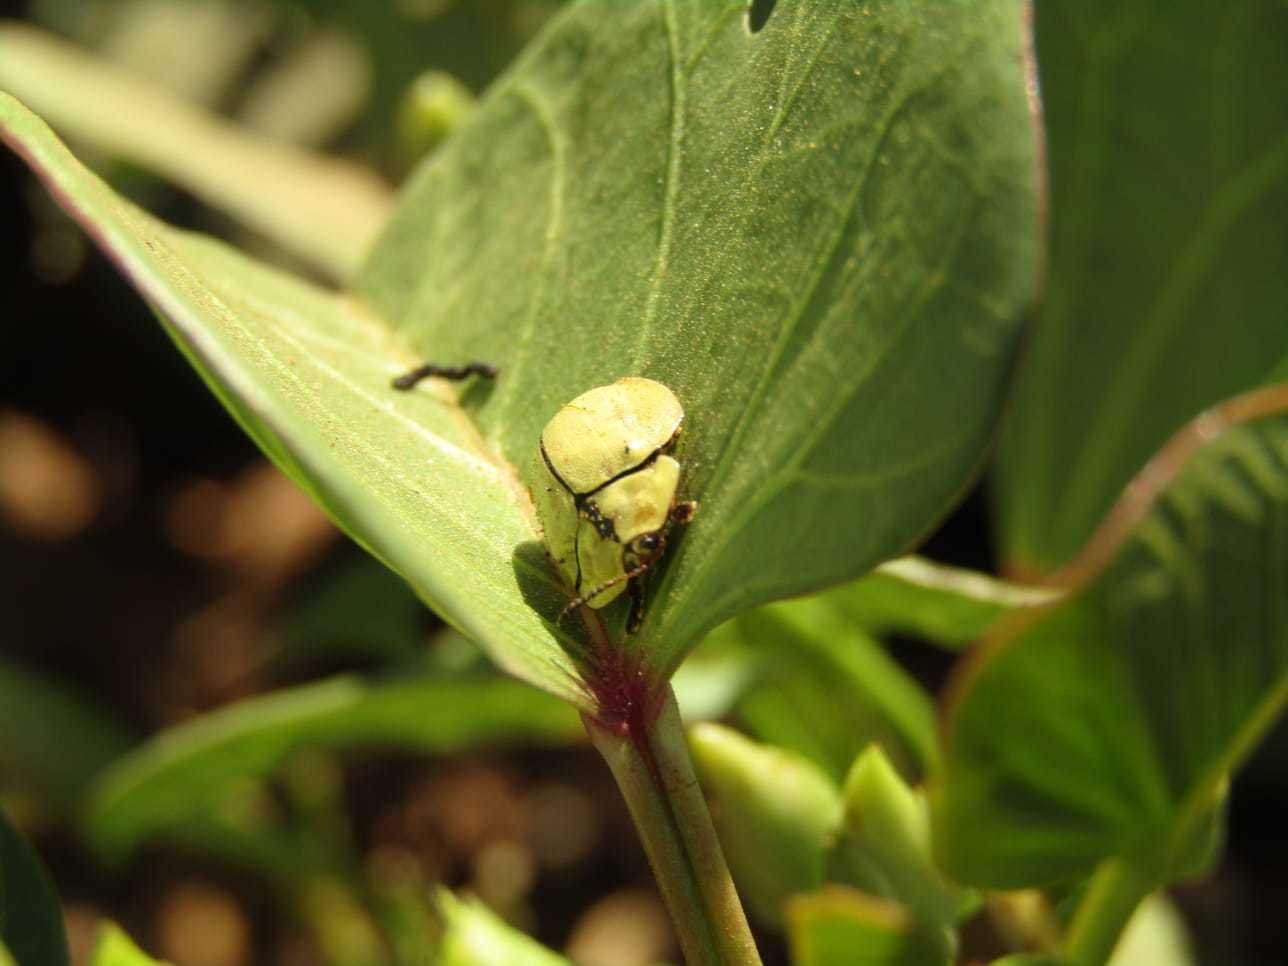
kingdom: Animalia
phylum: Arthropoda
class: Insecta
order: Coleoptera
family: Chrysomelidae
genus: Zatrephina
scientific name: Zatrephina lineata
